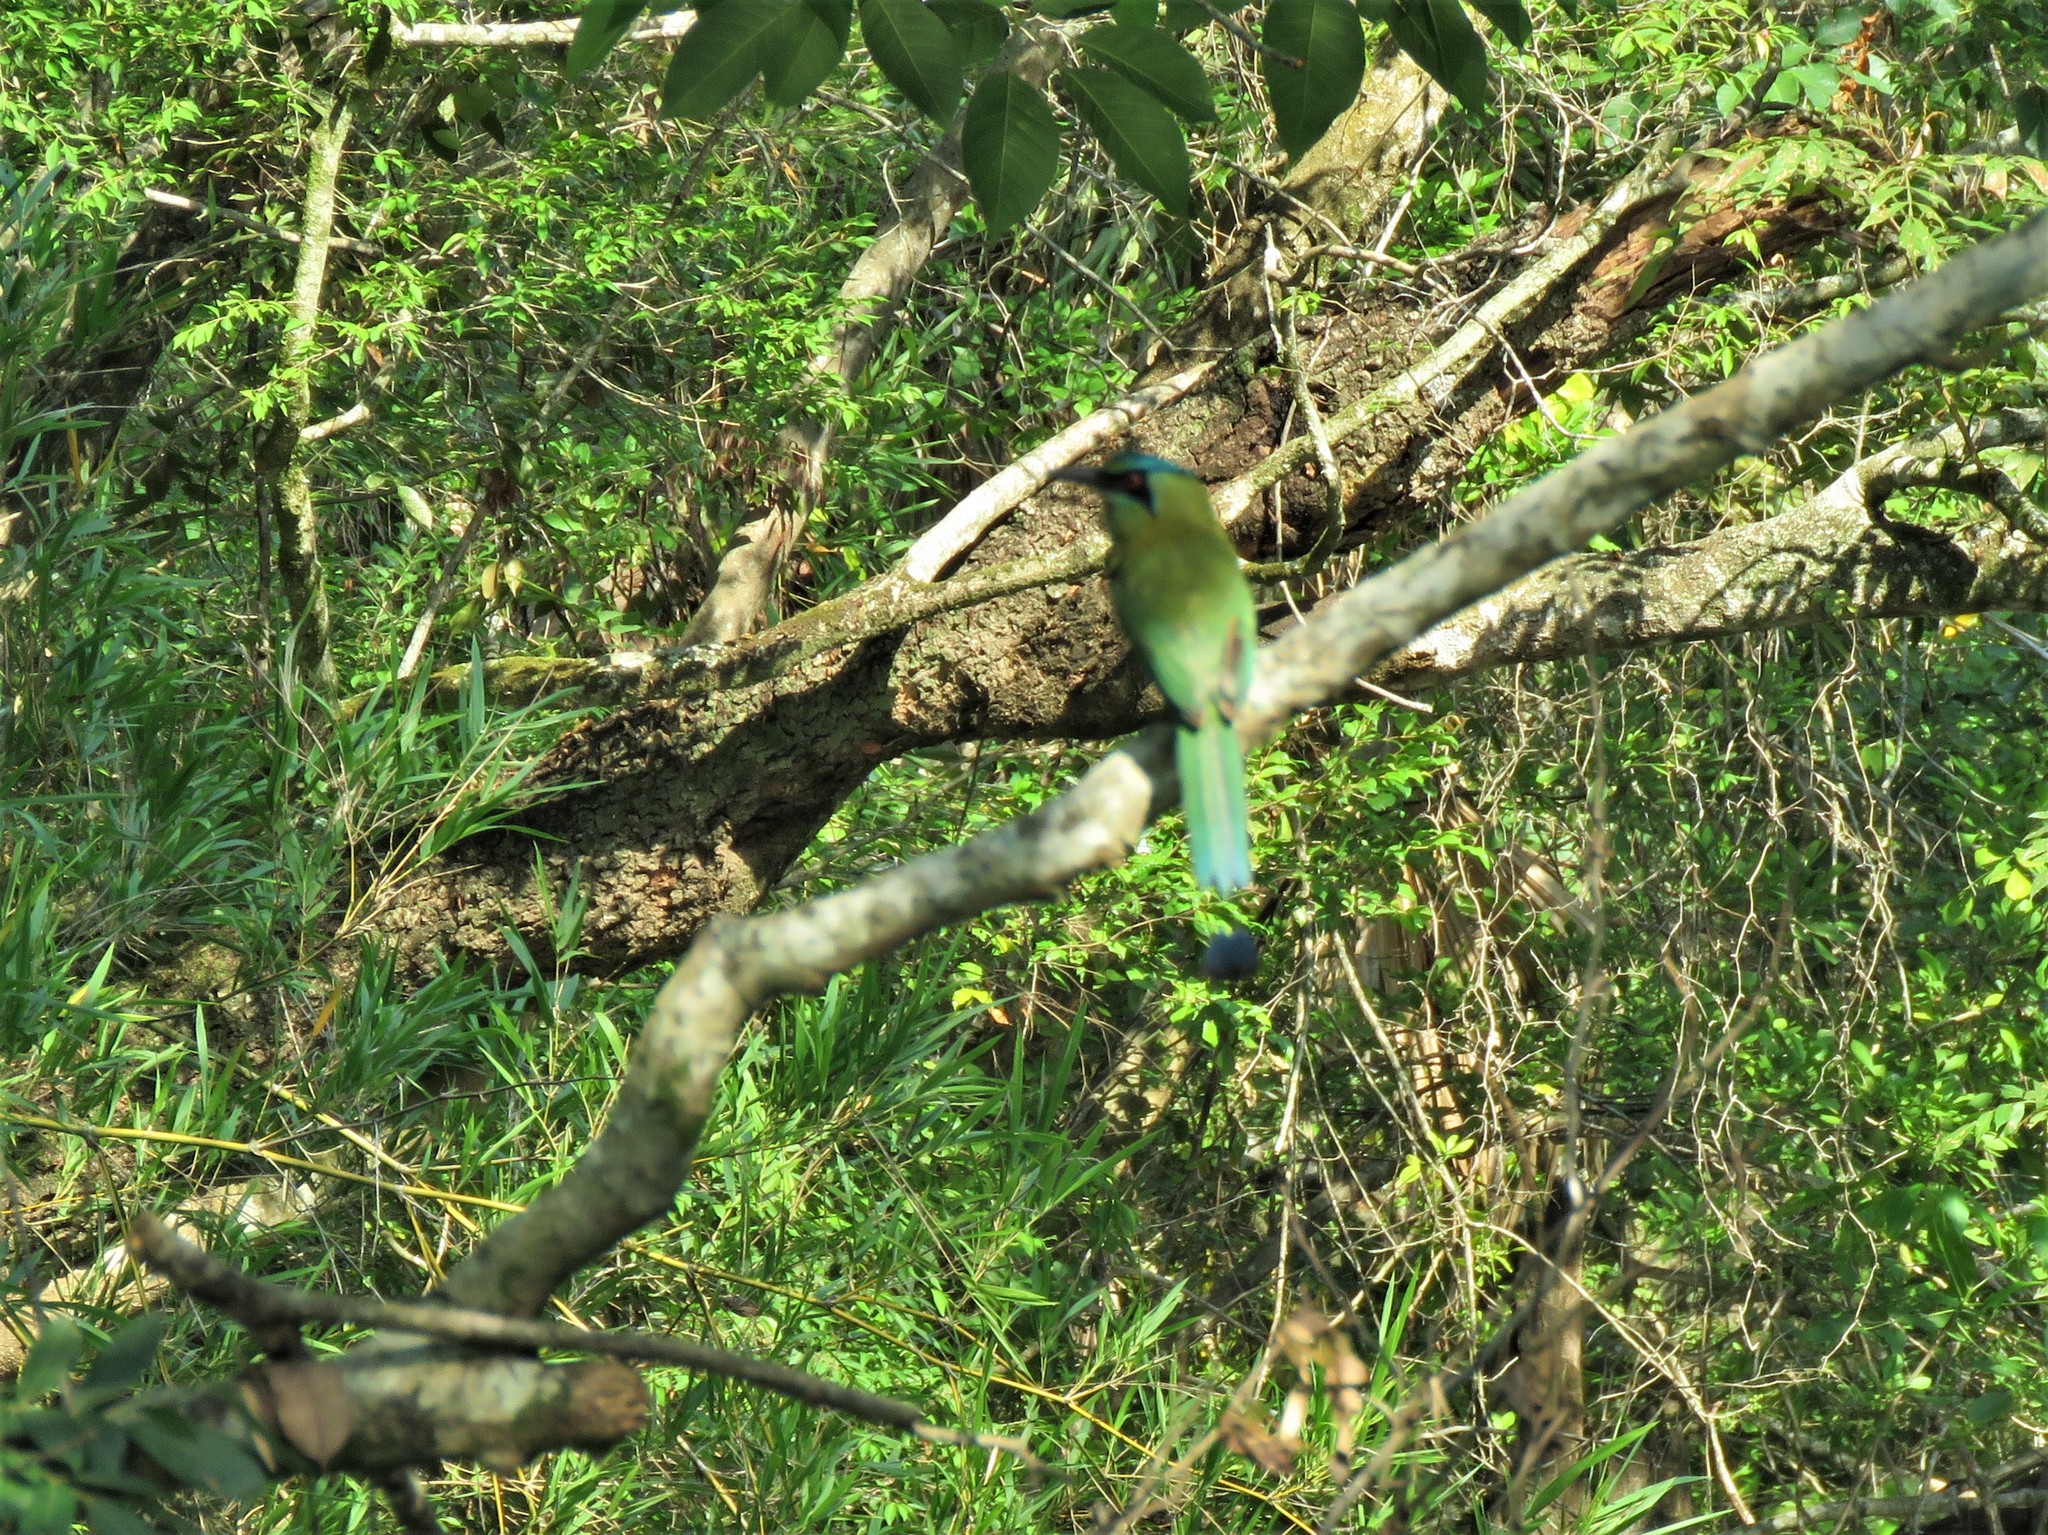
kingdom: Animalia
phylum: Chordata
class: Aves
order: Coraciiformes
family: Momotidae
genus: Momotus
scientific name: Momotus coeruliceps
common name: Blue-capped motmot
